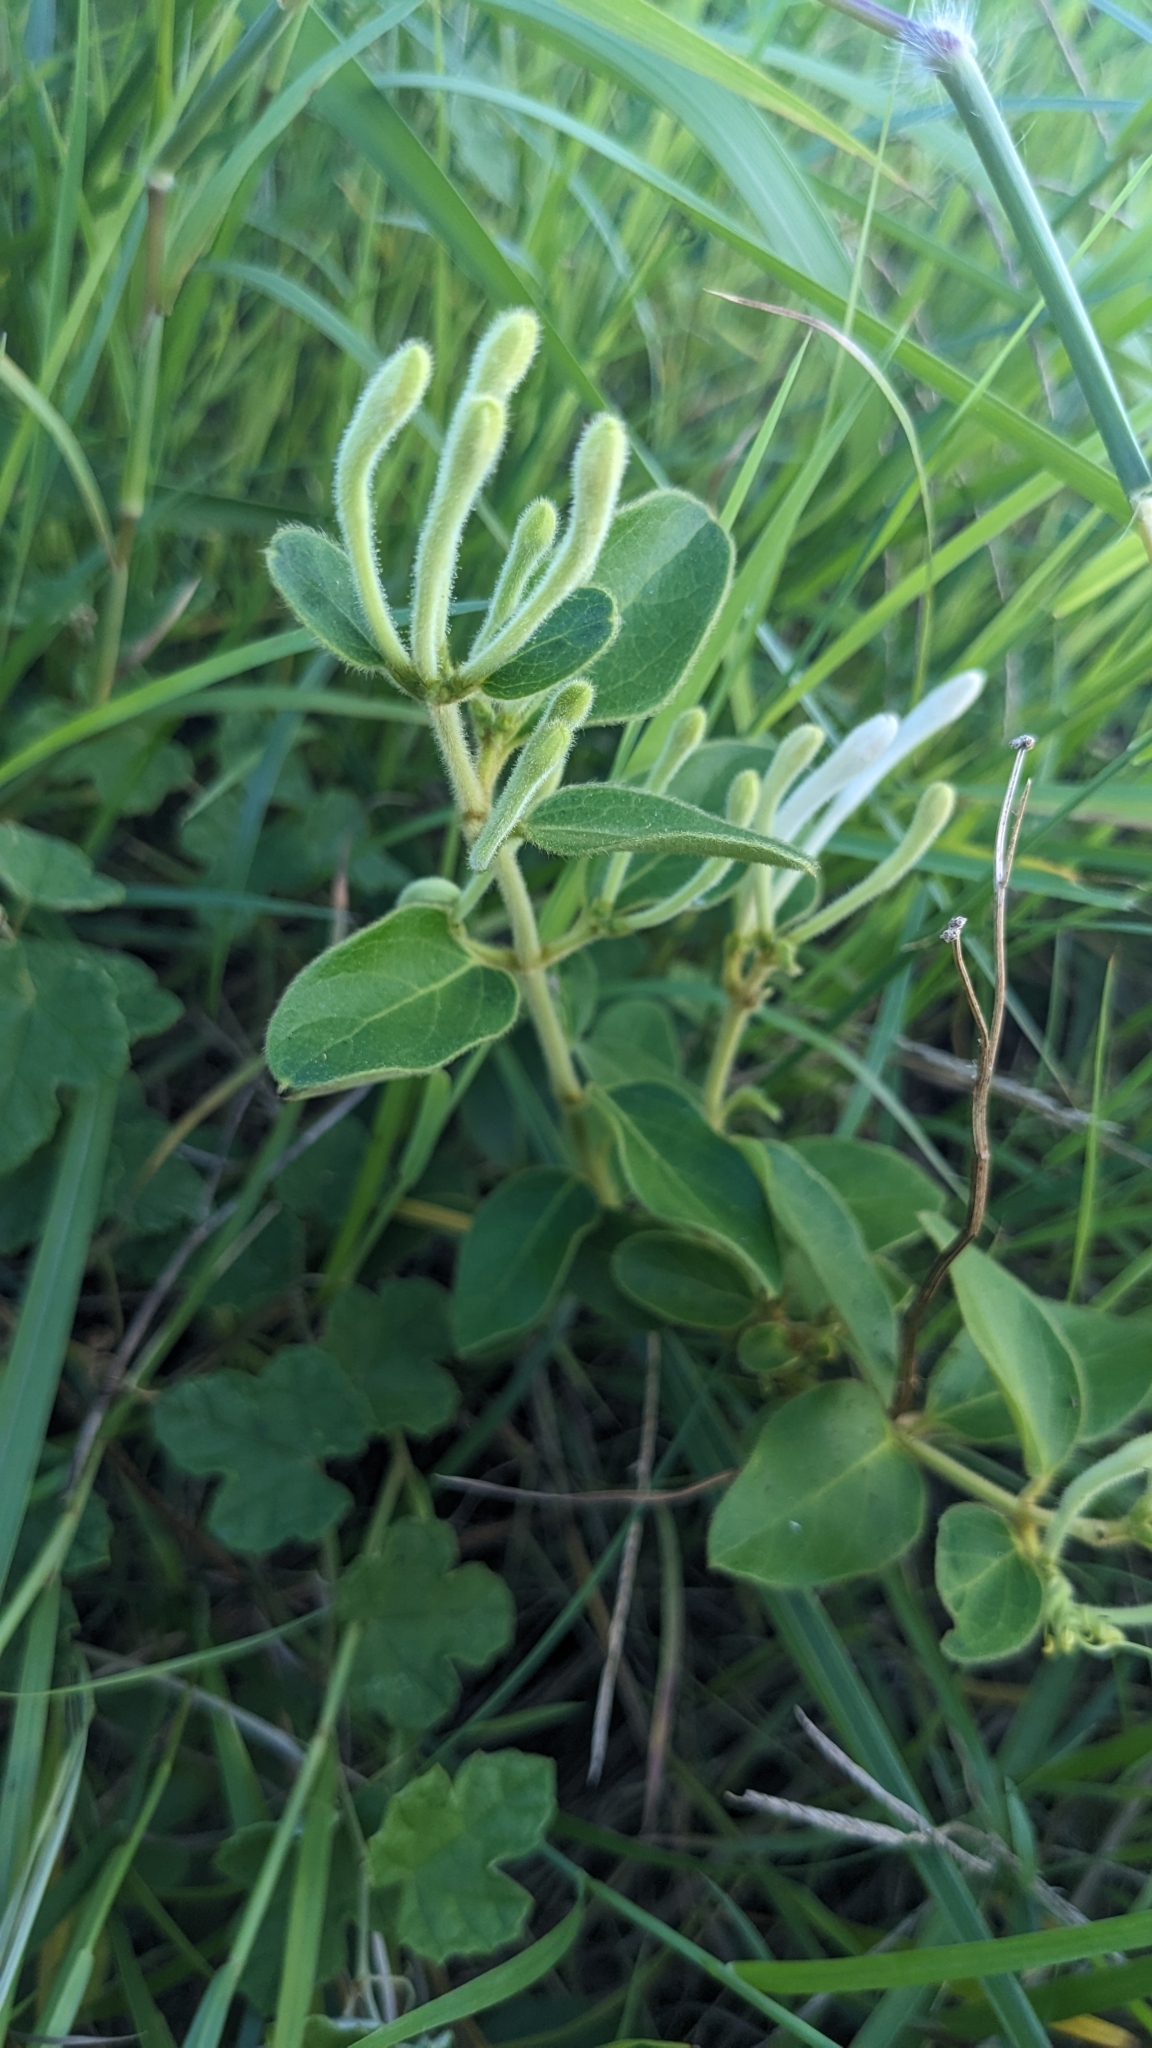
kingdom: Plantae
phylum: Tracheophyta
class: Magnoliopsida
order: Dipsacales
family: Caprifoliaceae
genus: Lonicera
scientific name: Lonicera japonica
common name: Japanese honeysuckle
